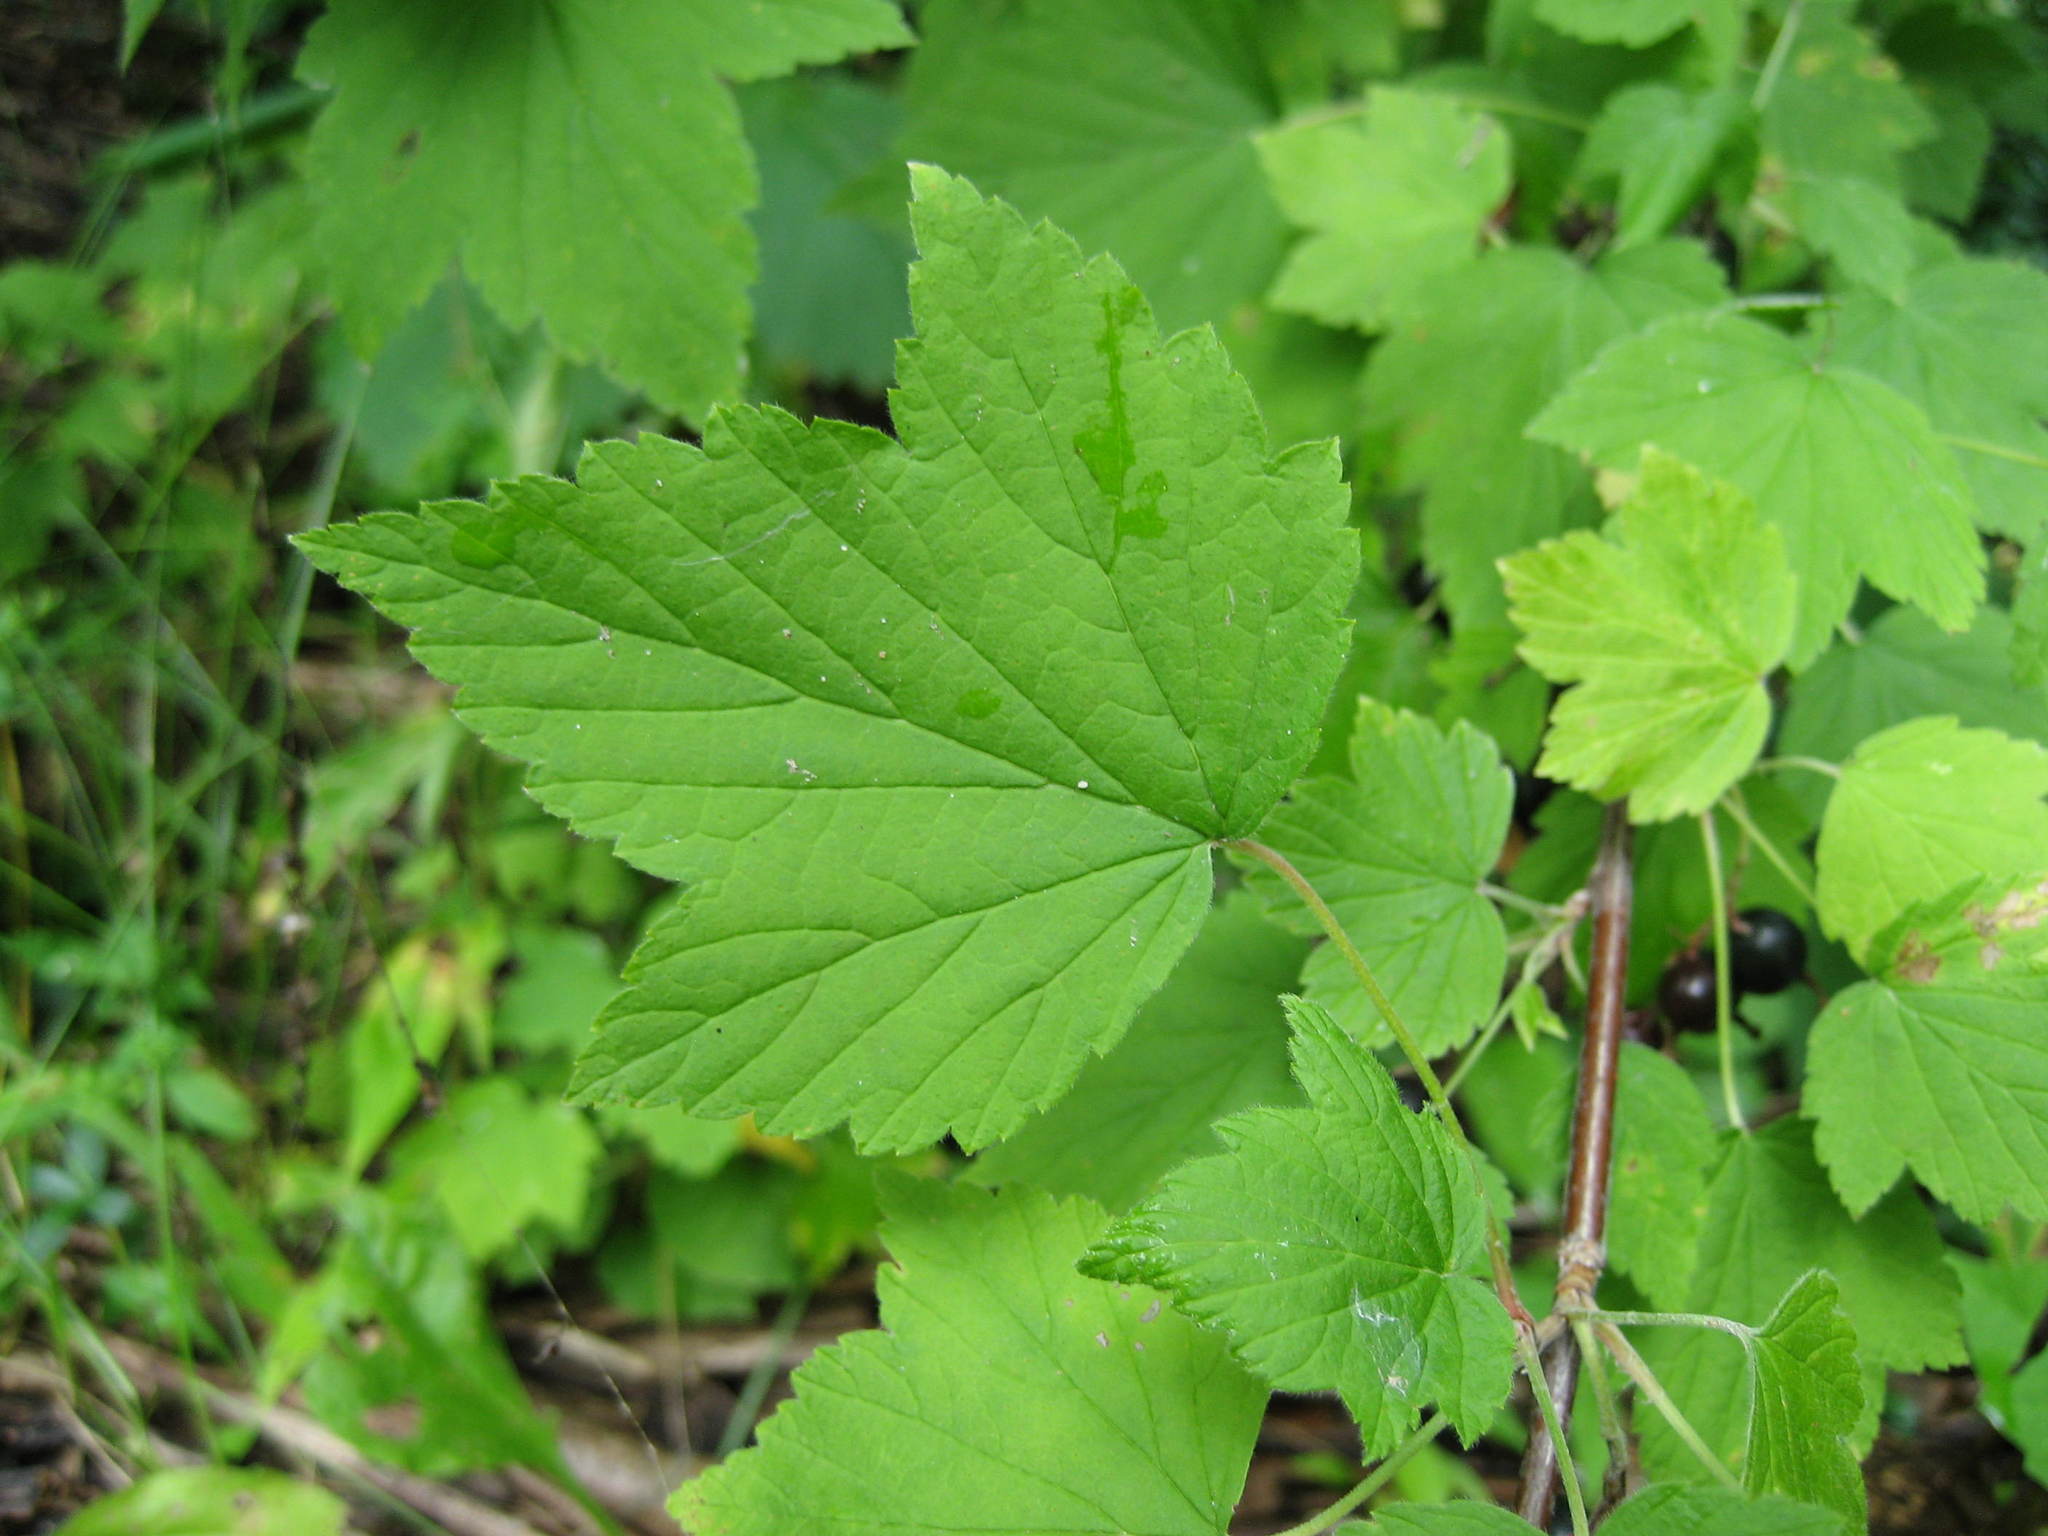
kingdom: Plantae
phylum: Tracheophyta
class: Magnoliopsida
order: Saxifragales
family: Grossulariaceae
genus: Ribes
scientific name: Ribes americanum
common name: American black currant
